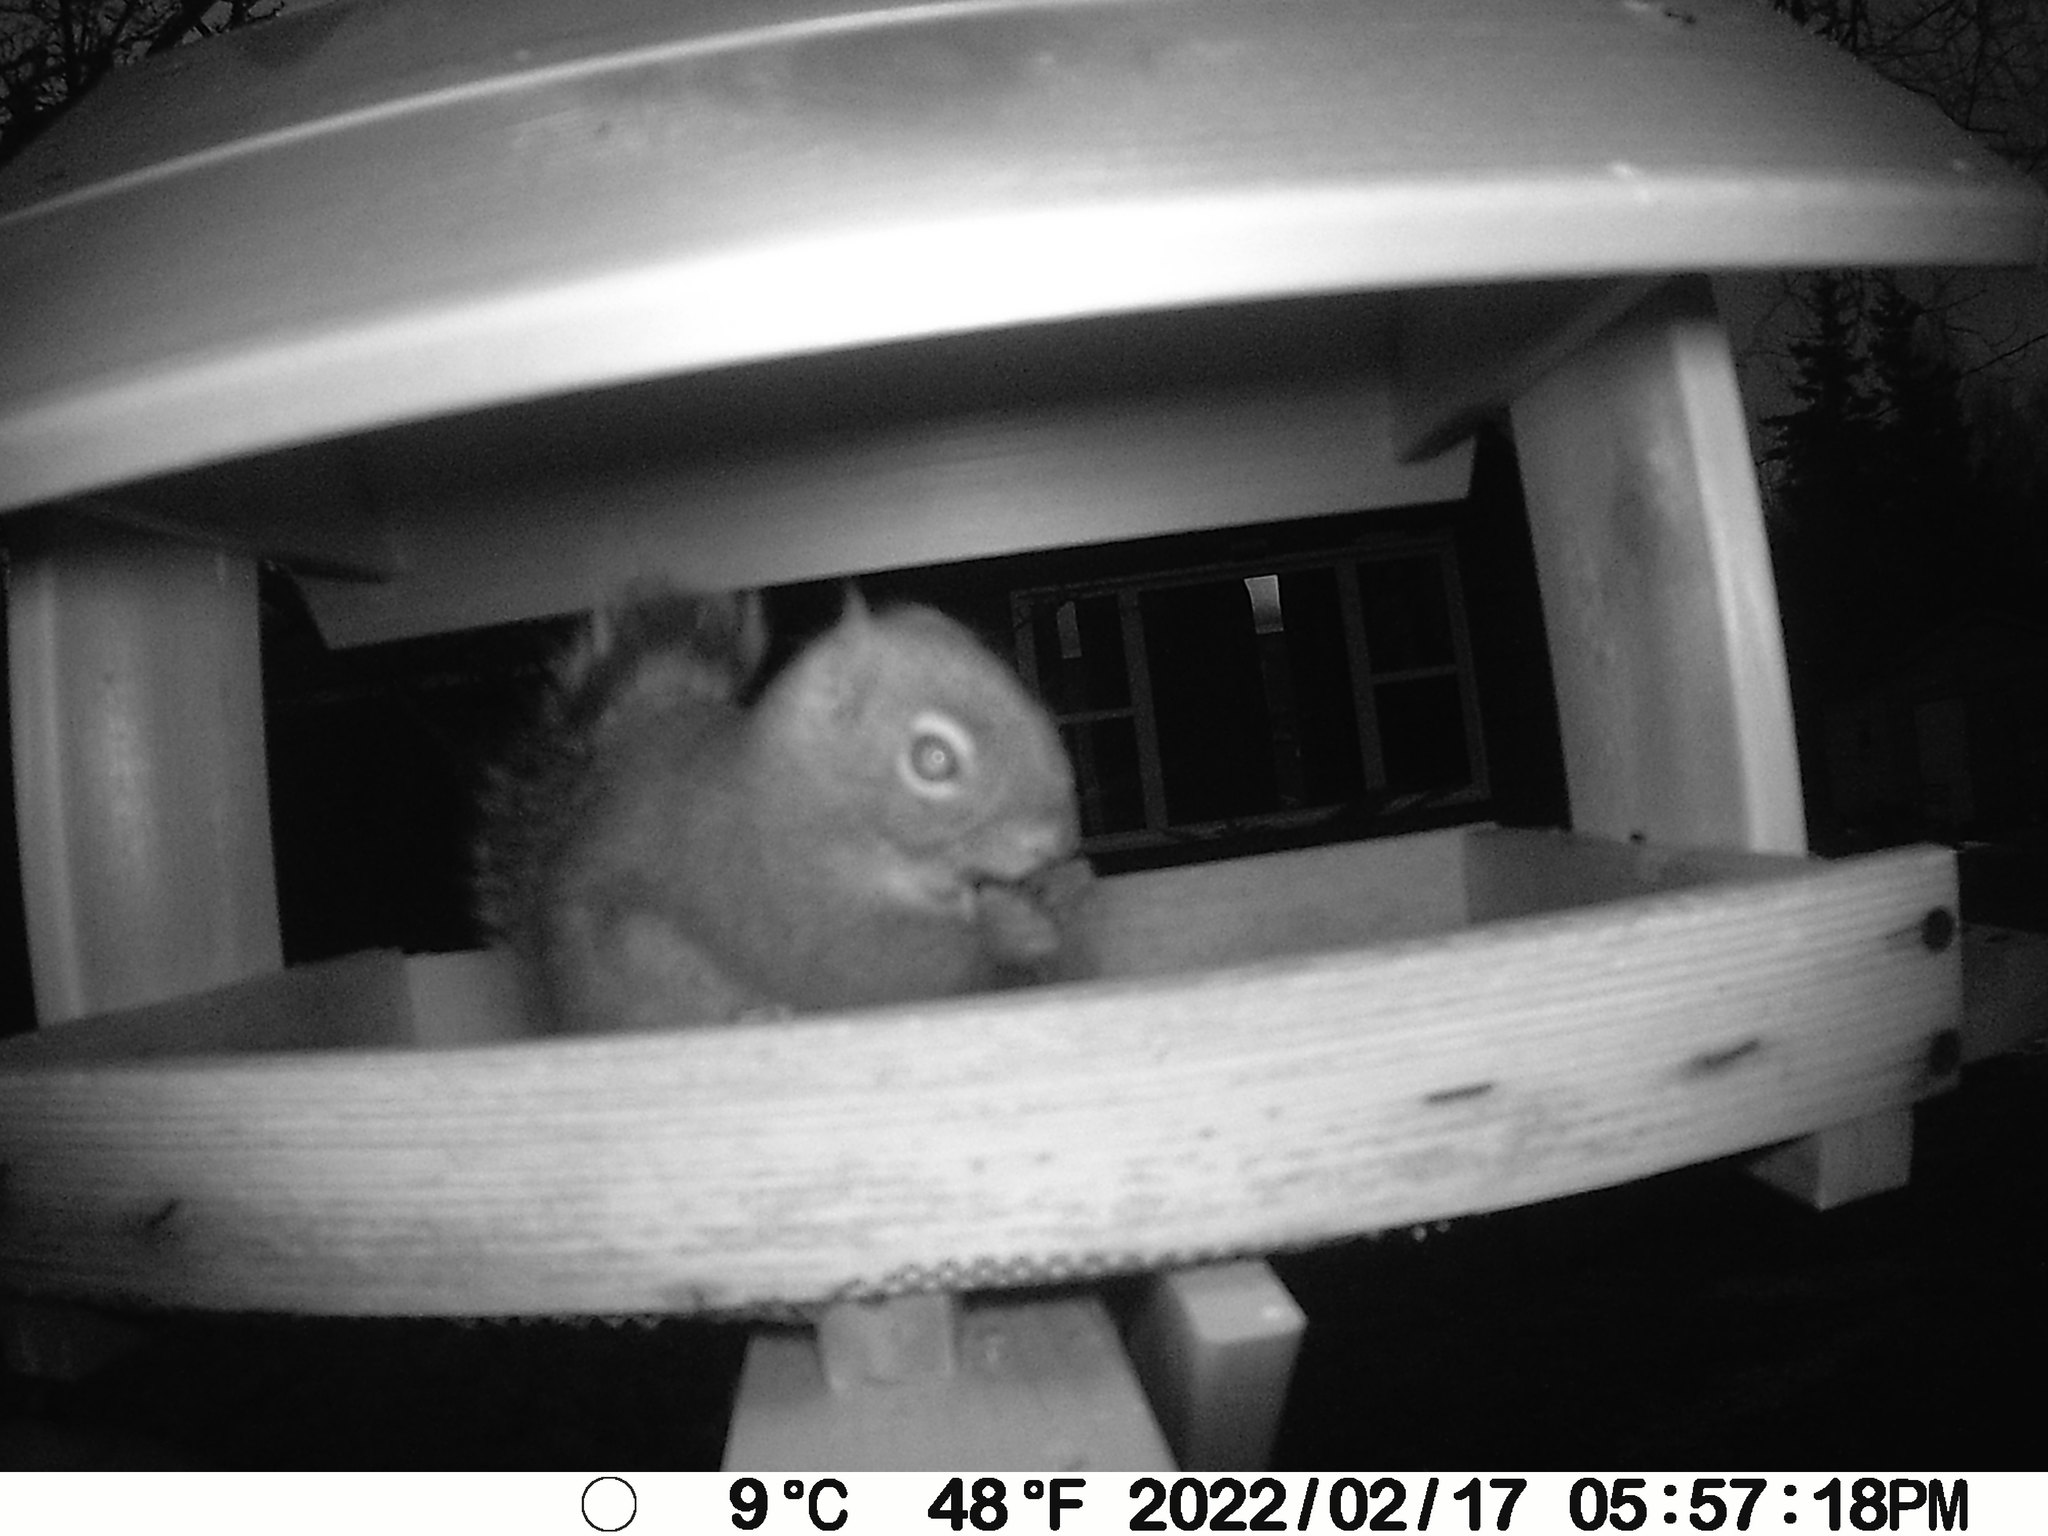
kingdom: Animalia
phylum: Chordata
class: Mammalia
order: Rodentia
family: Sciuridae
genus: Tamiasciurus
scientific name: Tamiasciurus hudsonicus
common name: Red squirrel
